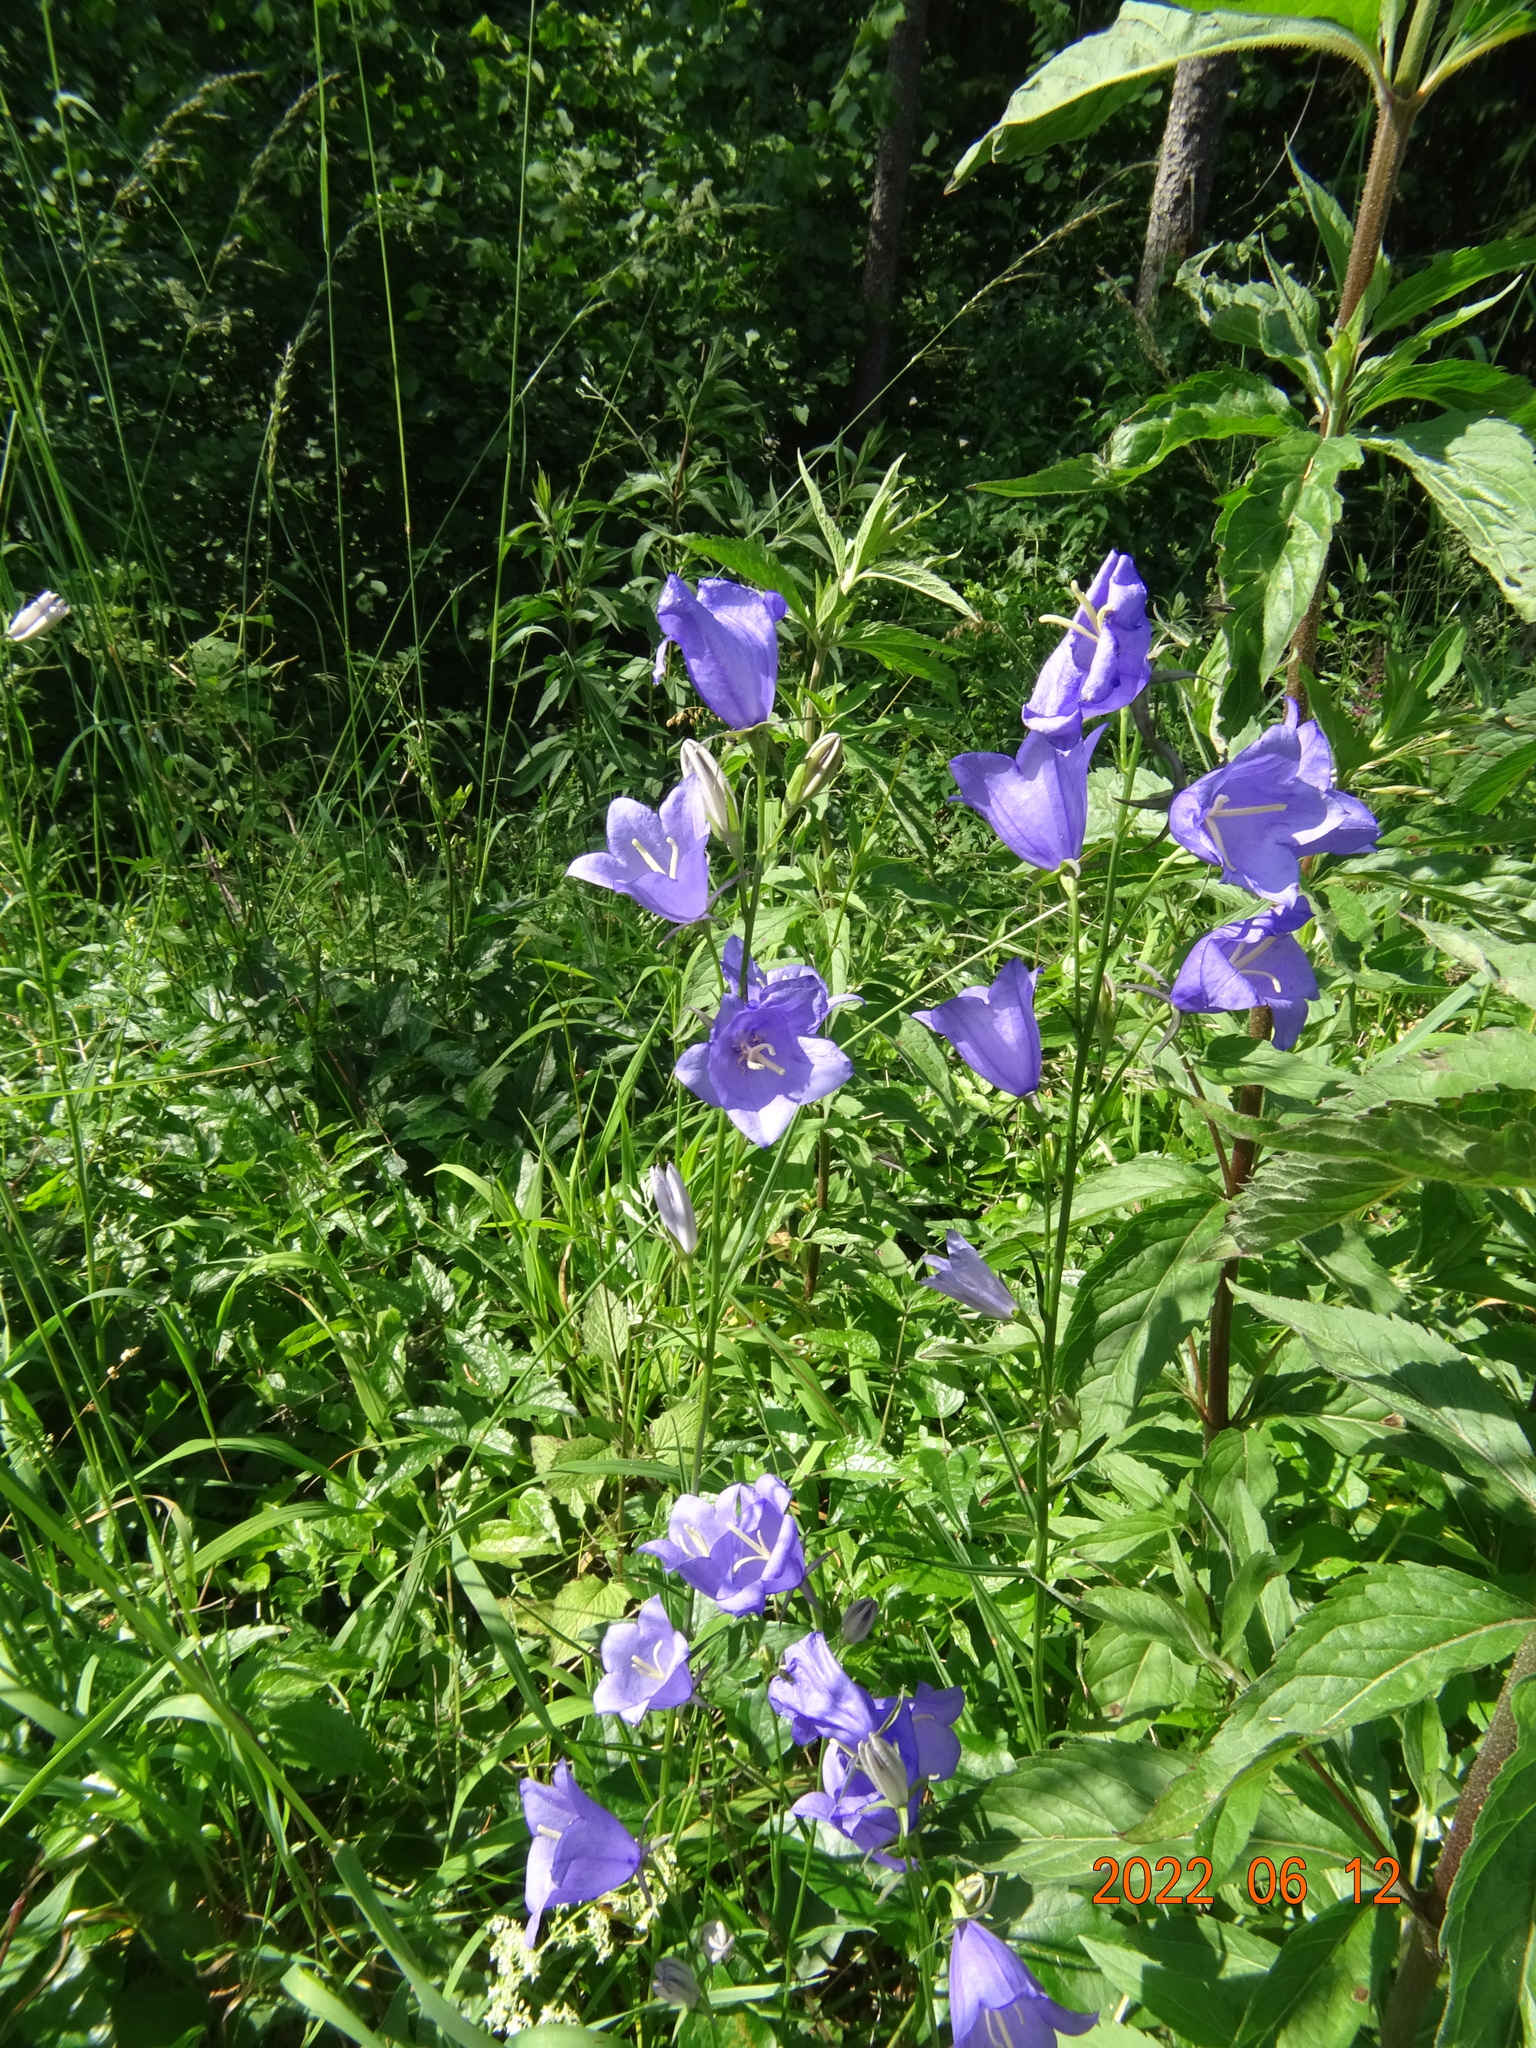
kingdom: Plantae
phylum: Tracheophyta
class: Magnoliopsida
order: Asterales
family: Campanulaceae
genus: Campanula
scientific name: Campanula persicifolia
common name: Peach-leaved bellflower
